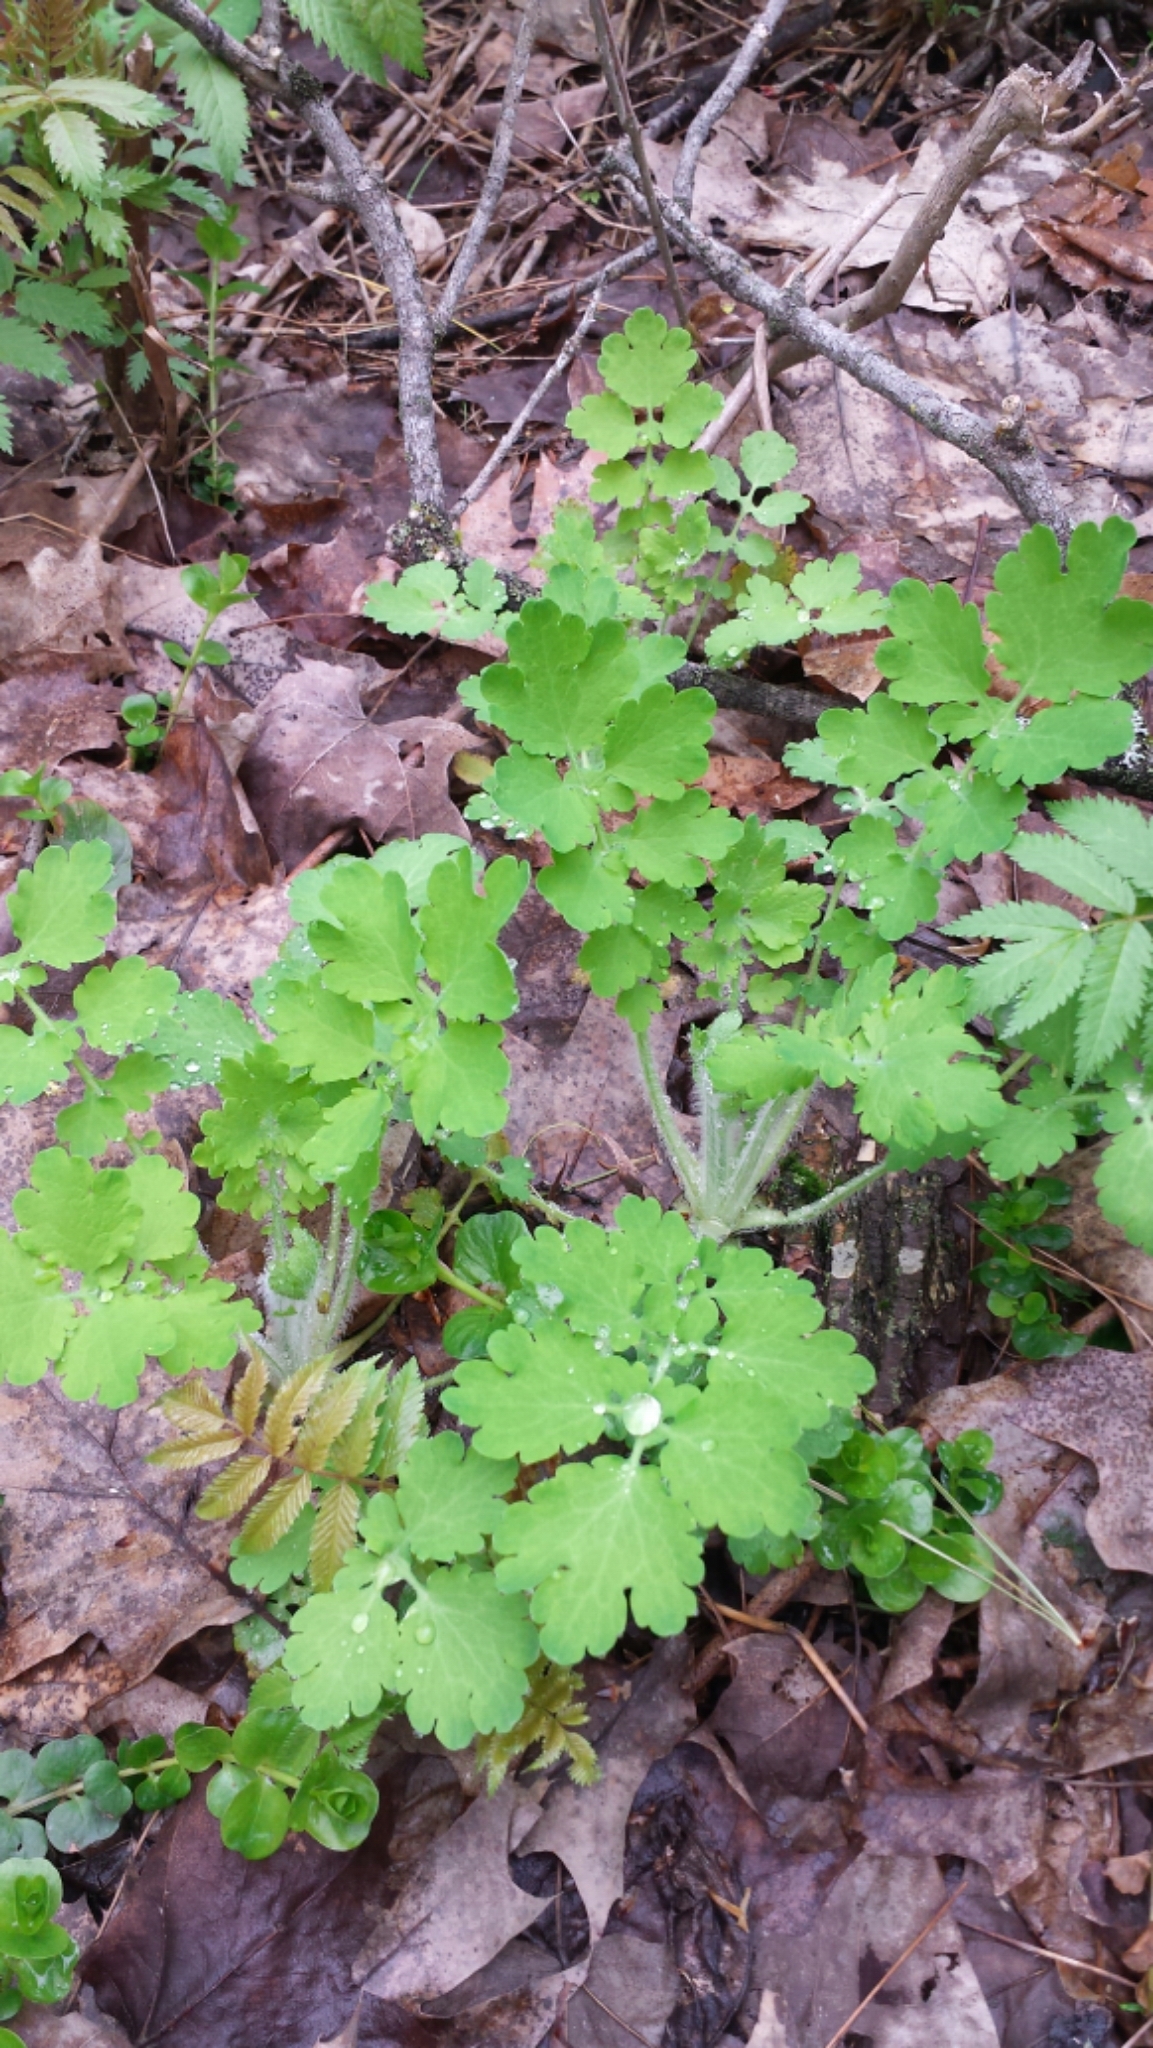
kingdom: Plantae
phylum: Tracheophyta
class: Magnoliopsida
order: Ranunculales
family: Papaveraceae
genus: Chelidonium
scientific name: Chelidonium majus
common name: Greater celandine
